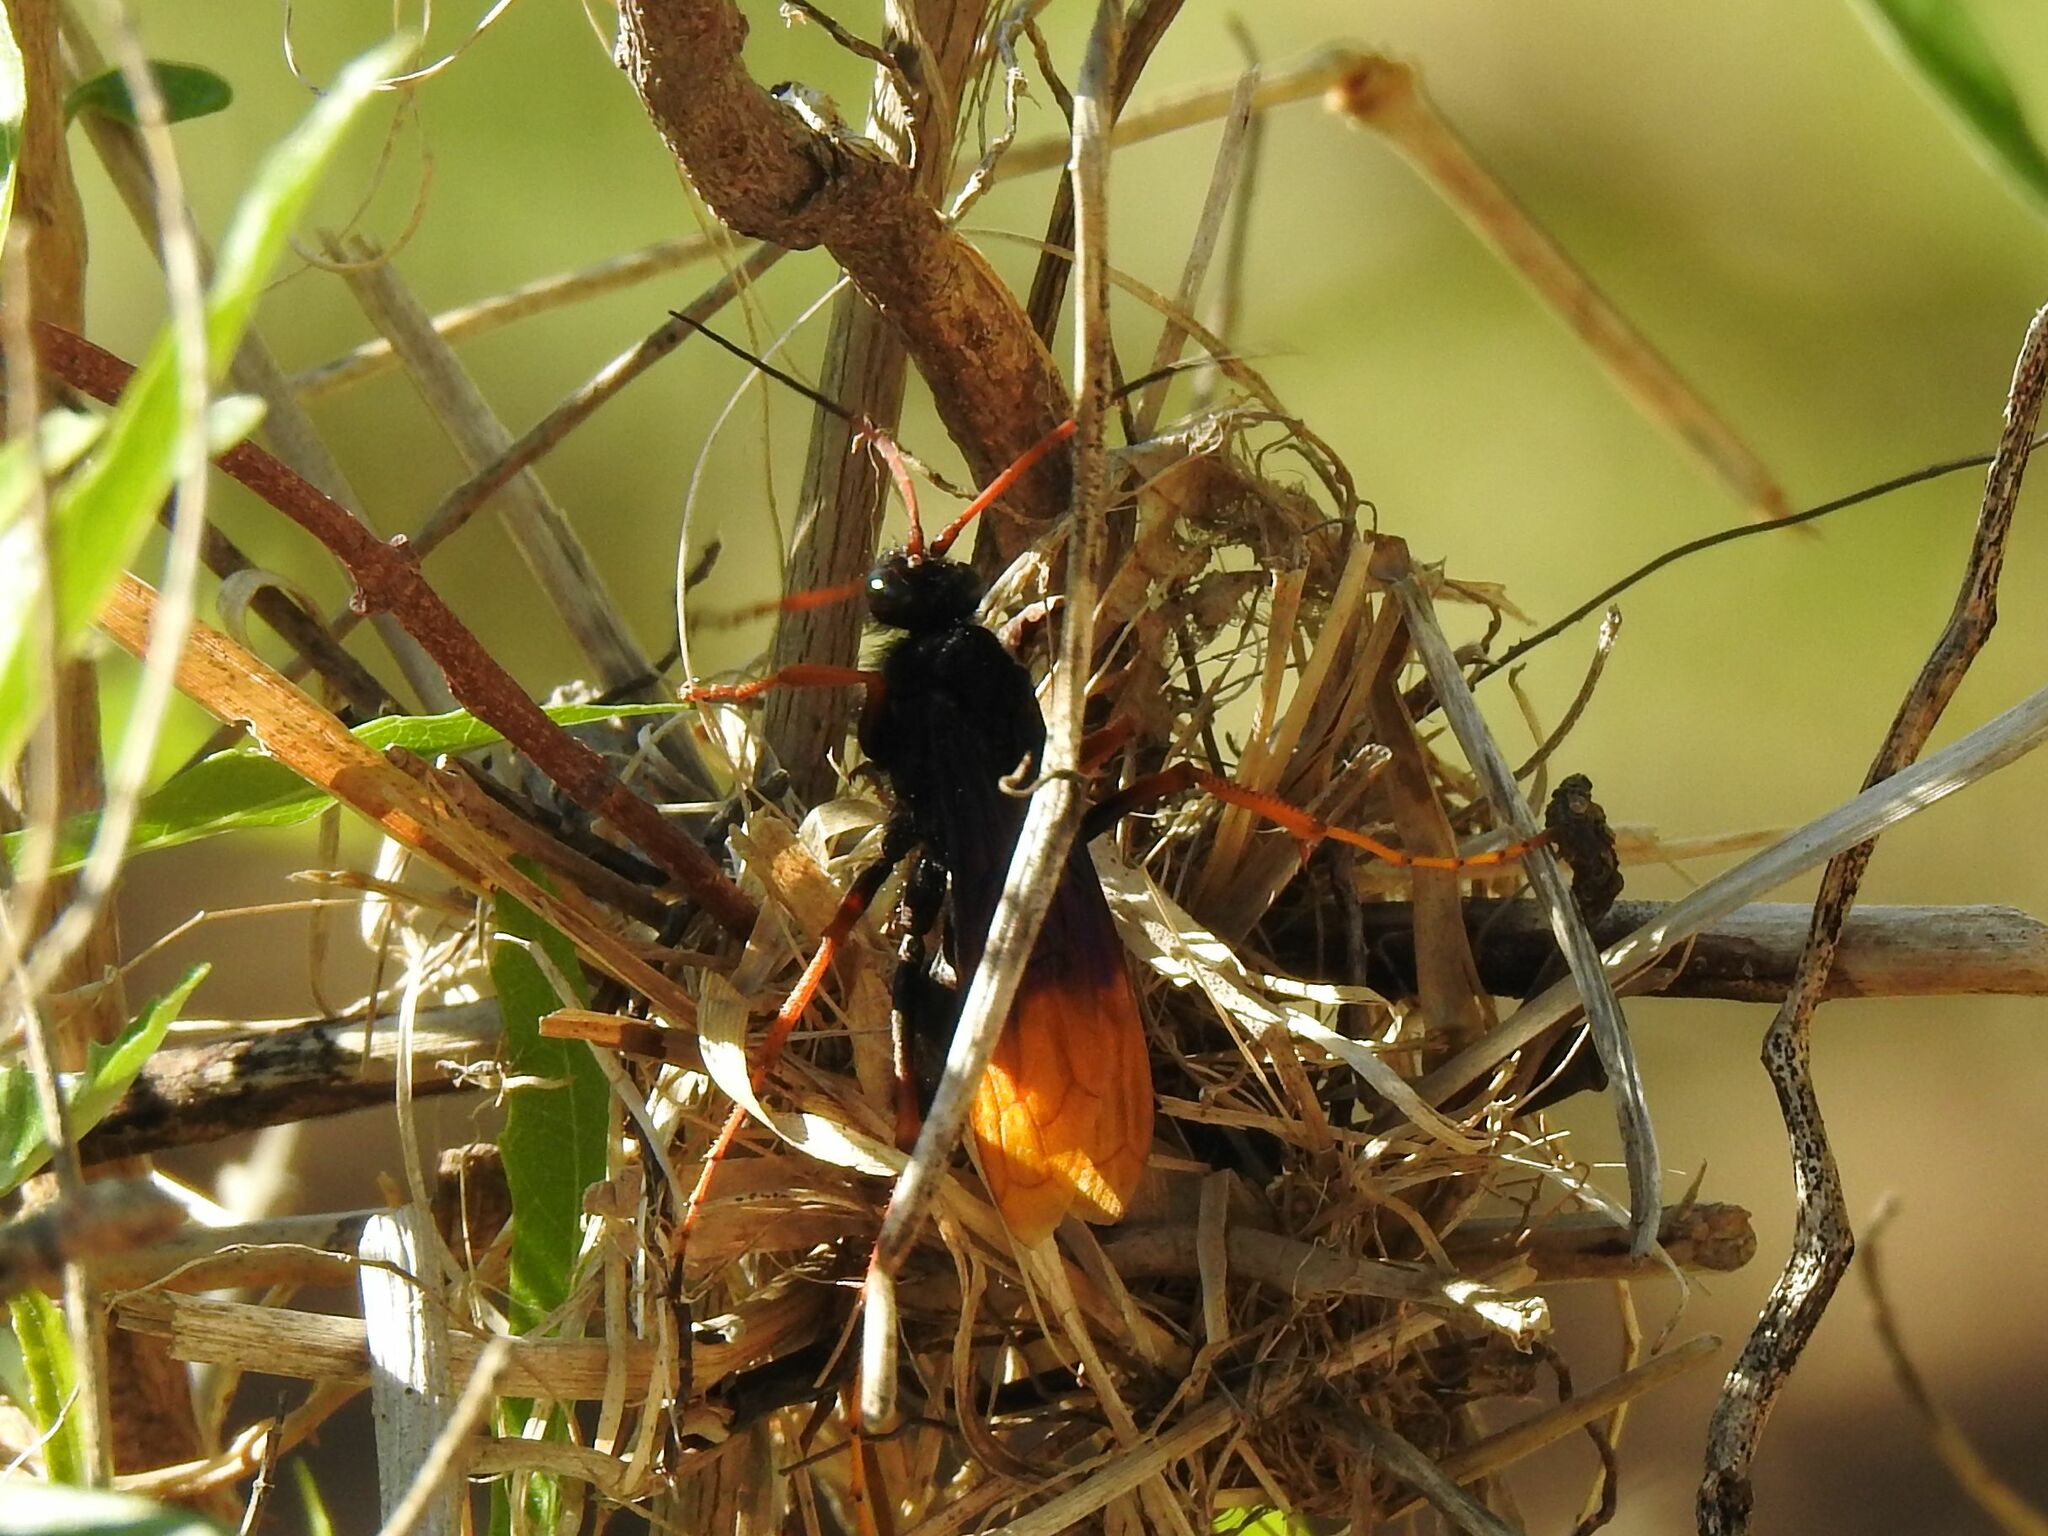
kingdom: Animalia
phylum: Arthropoda
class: Insecta
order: Hymenoptera
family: Pompilidae
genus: Java
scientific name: Java caroliwaterhousei
